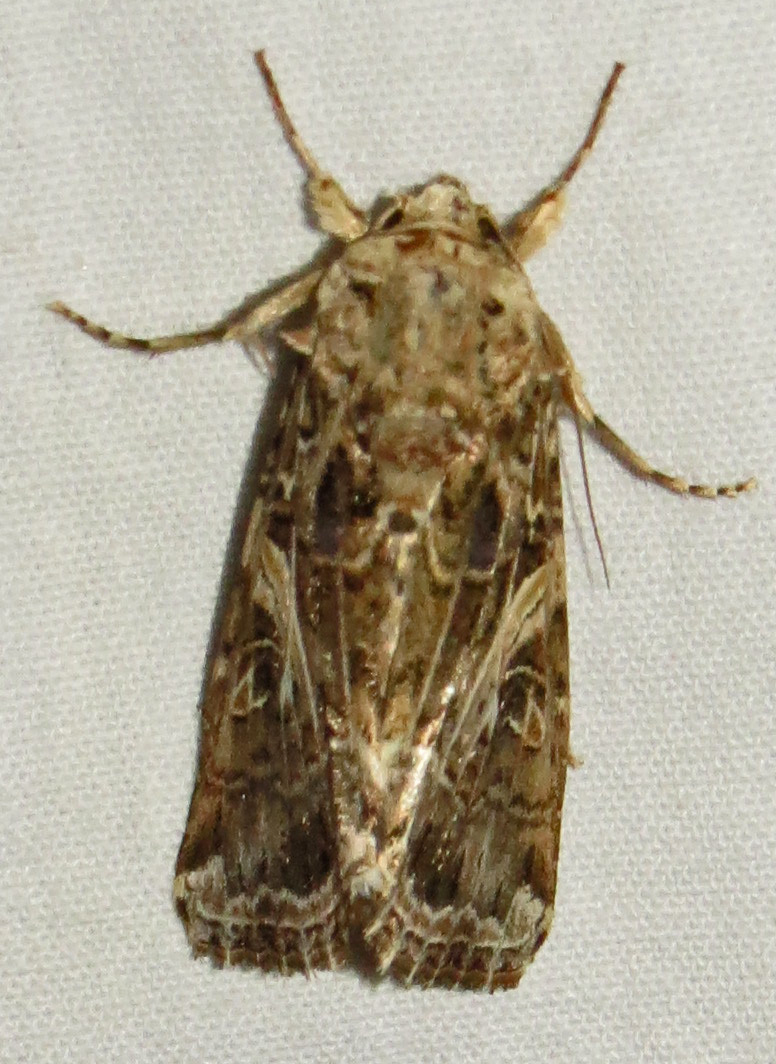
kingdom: Animalia
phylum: Arthropoda
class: Insecta
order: Lepidoptera
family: Noctuidae
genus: Spodoptera
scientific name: Spodoptera ornithogalli
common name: Yellow-striped armyworm
